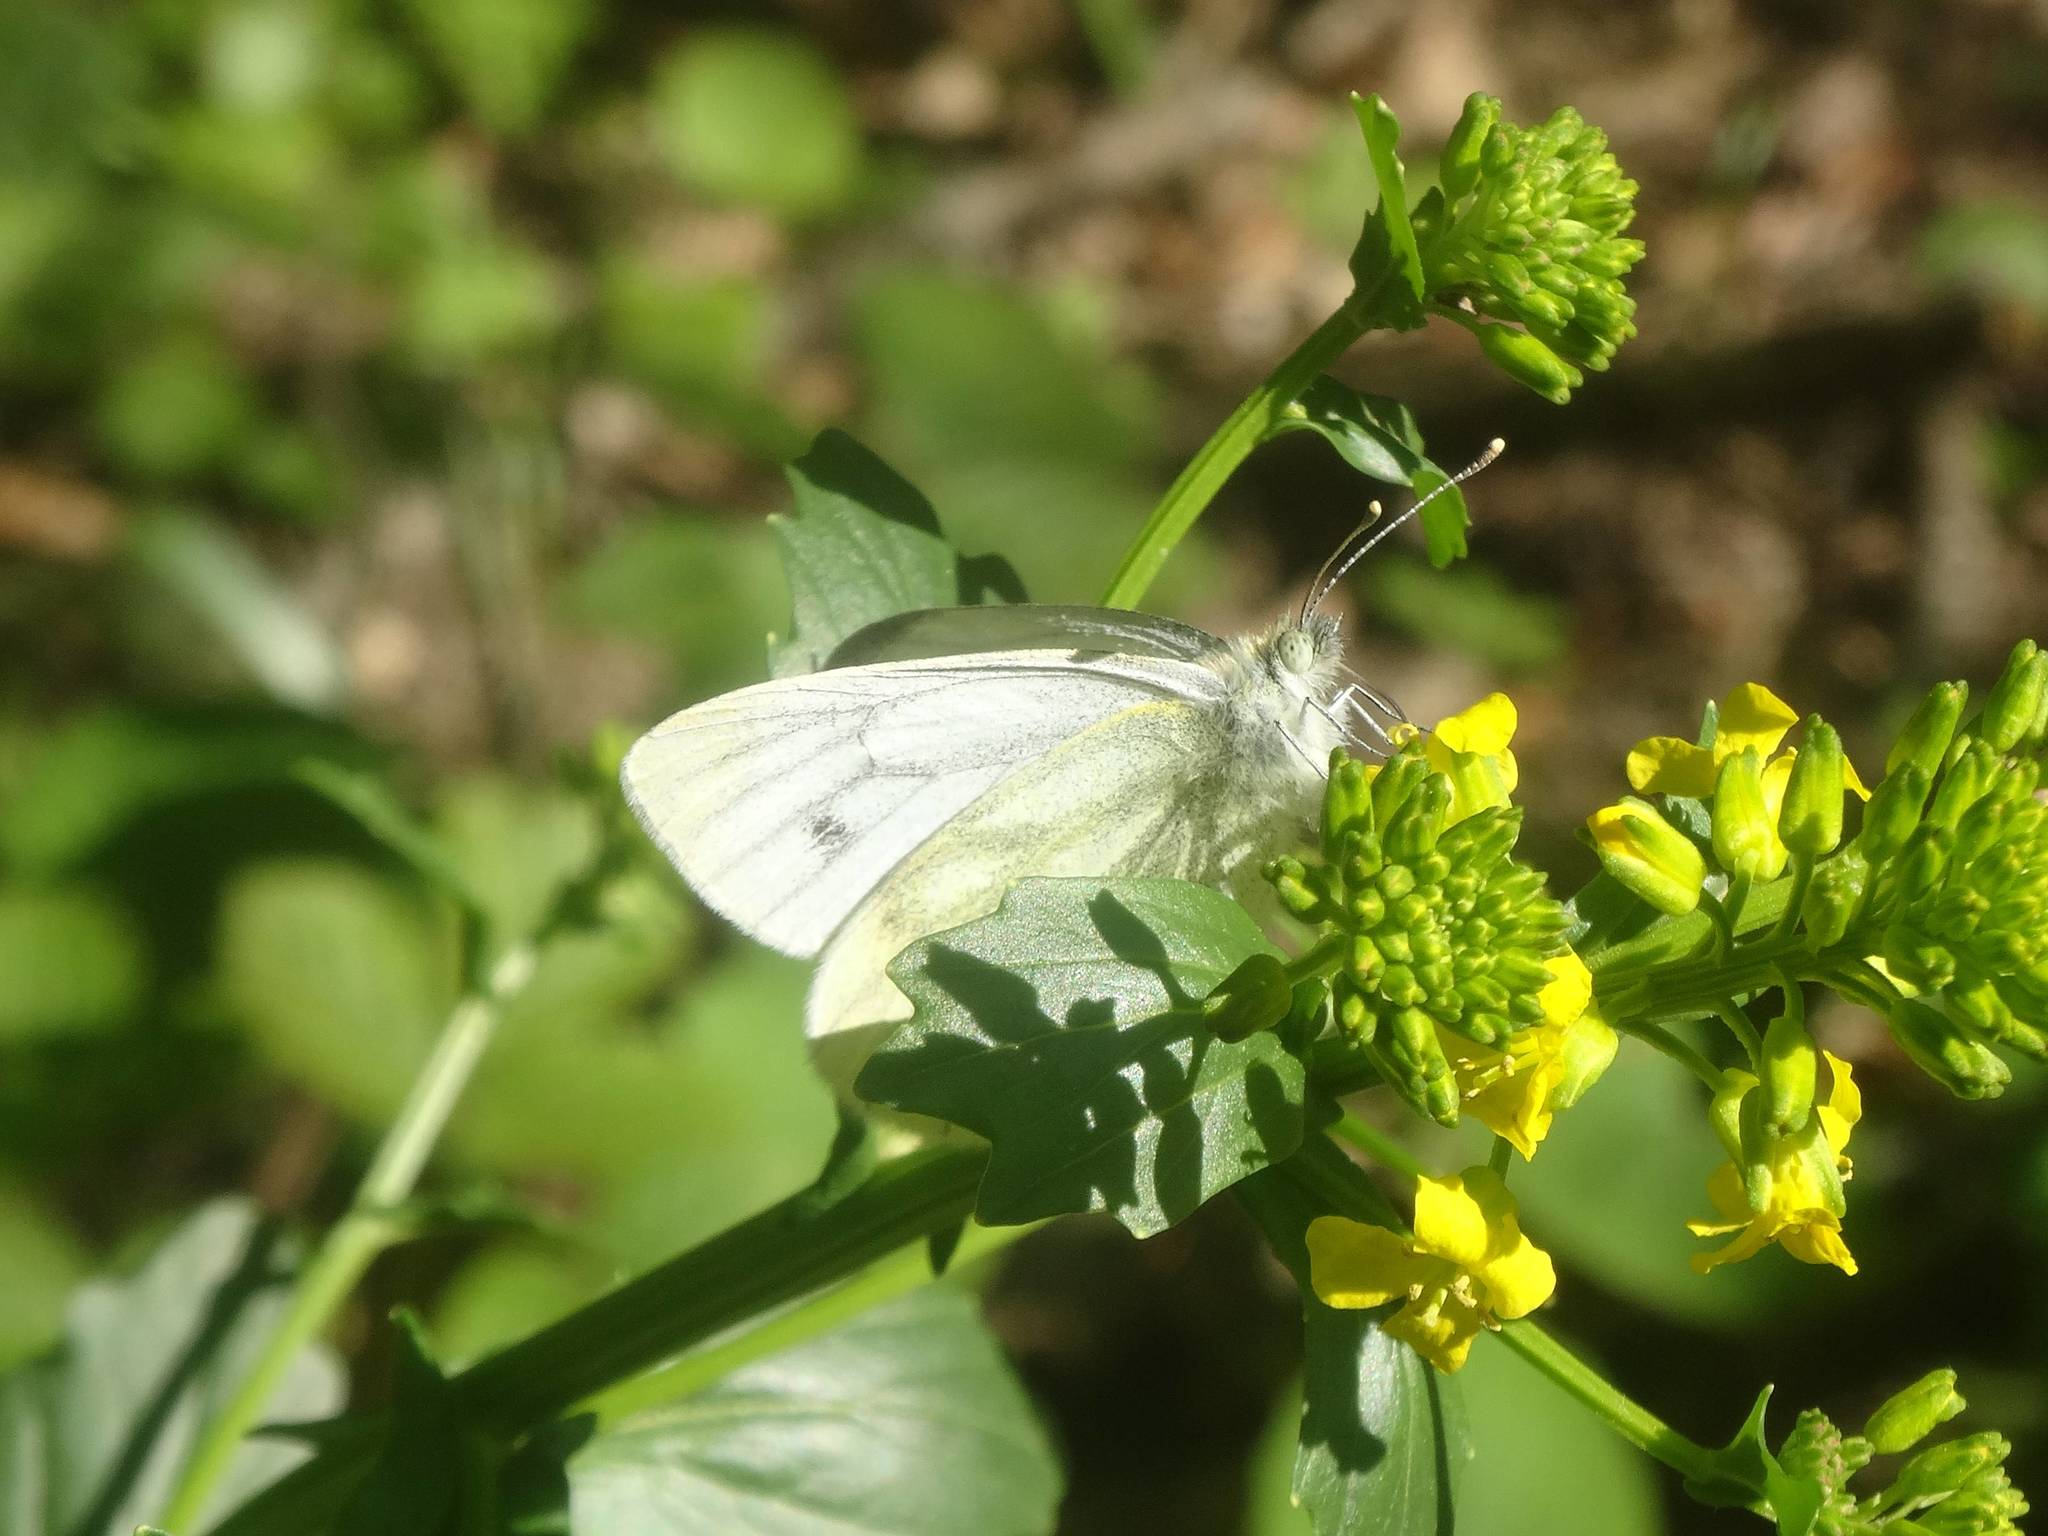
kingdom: Animalia
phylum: Arthropoda
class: Insecta
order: Lepidoptera
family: Pieridae
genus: Pieris
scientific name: Pieris pseudorapae
